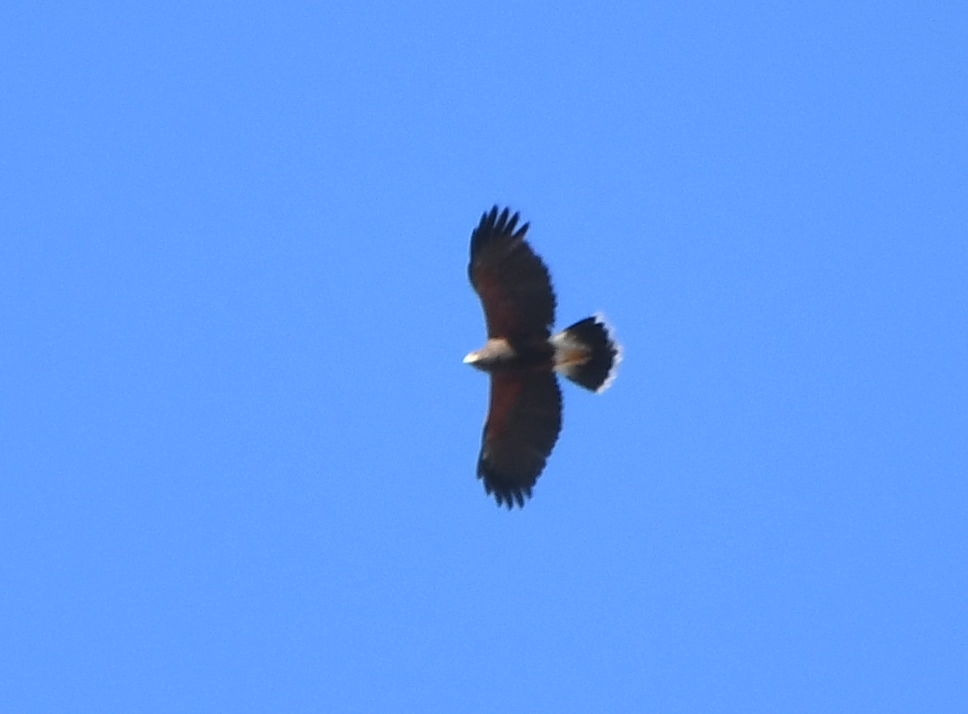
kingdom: Animalia
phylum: Chordata
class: Aves
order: Accipitriformes
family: Accipitridae
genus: Parabuteo
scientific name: Parabuteo unicinctus
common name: Harris's hawk
